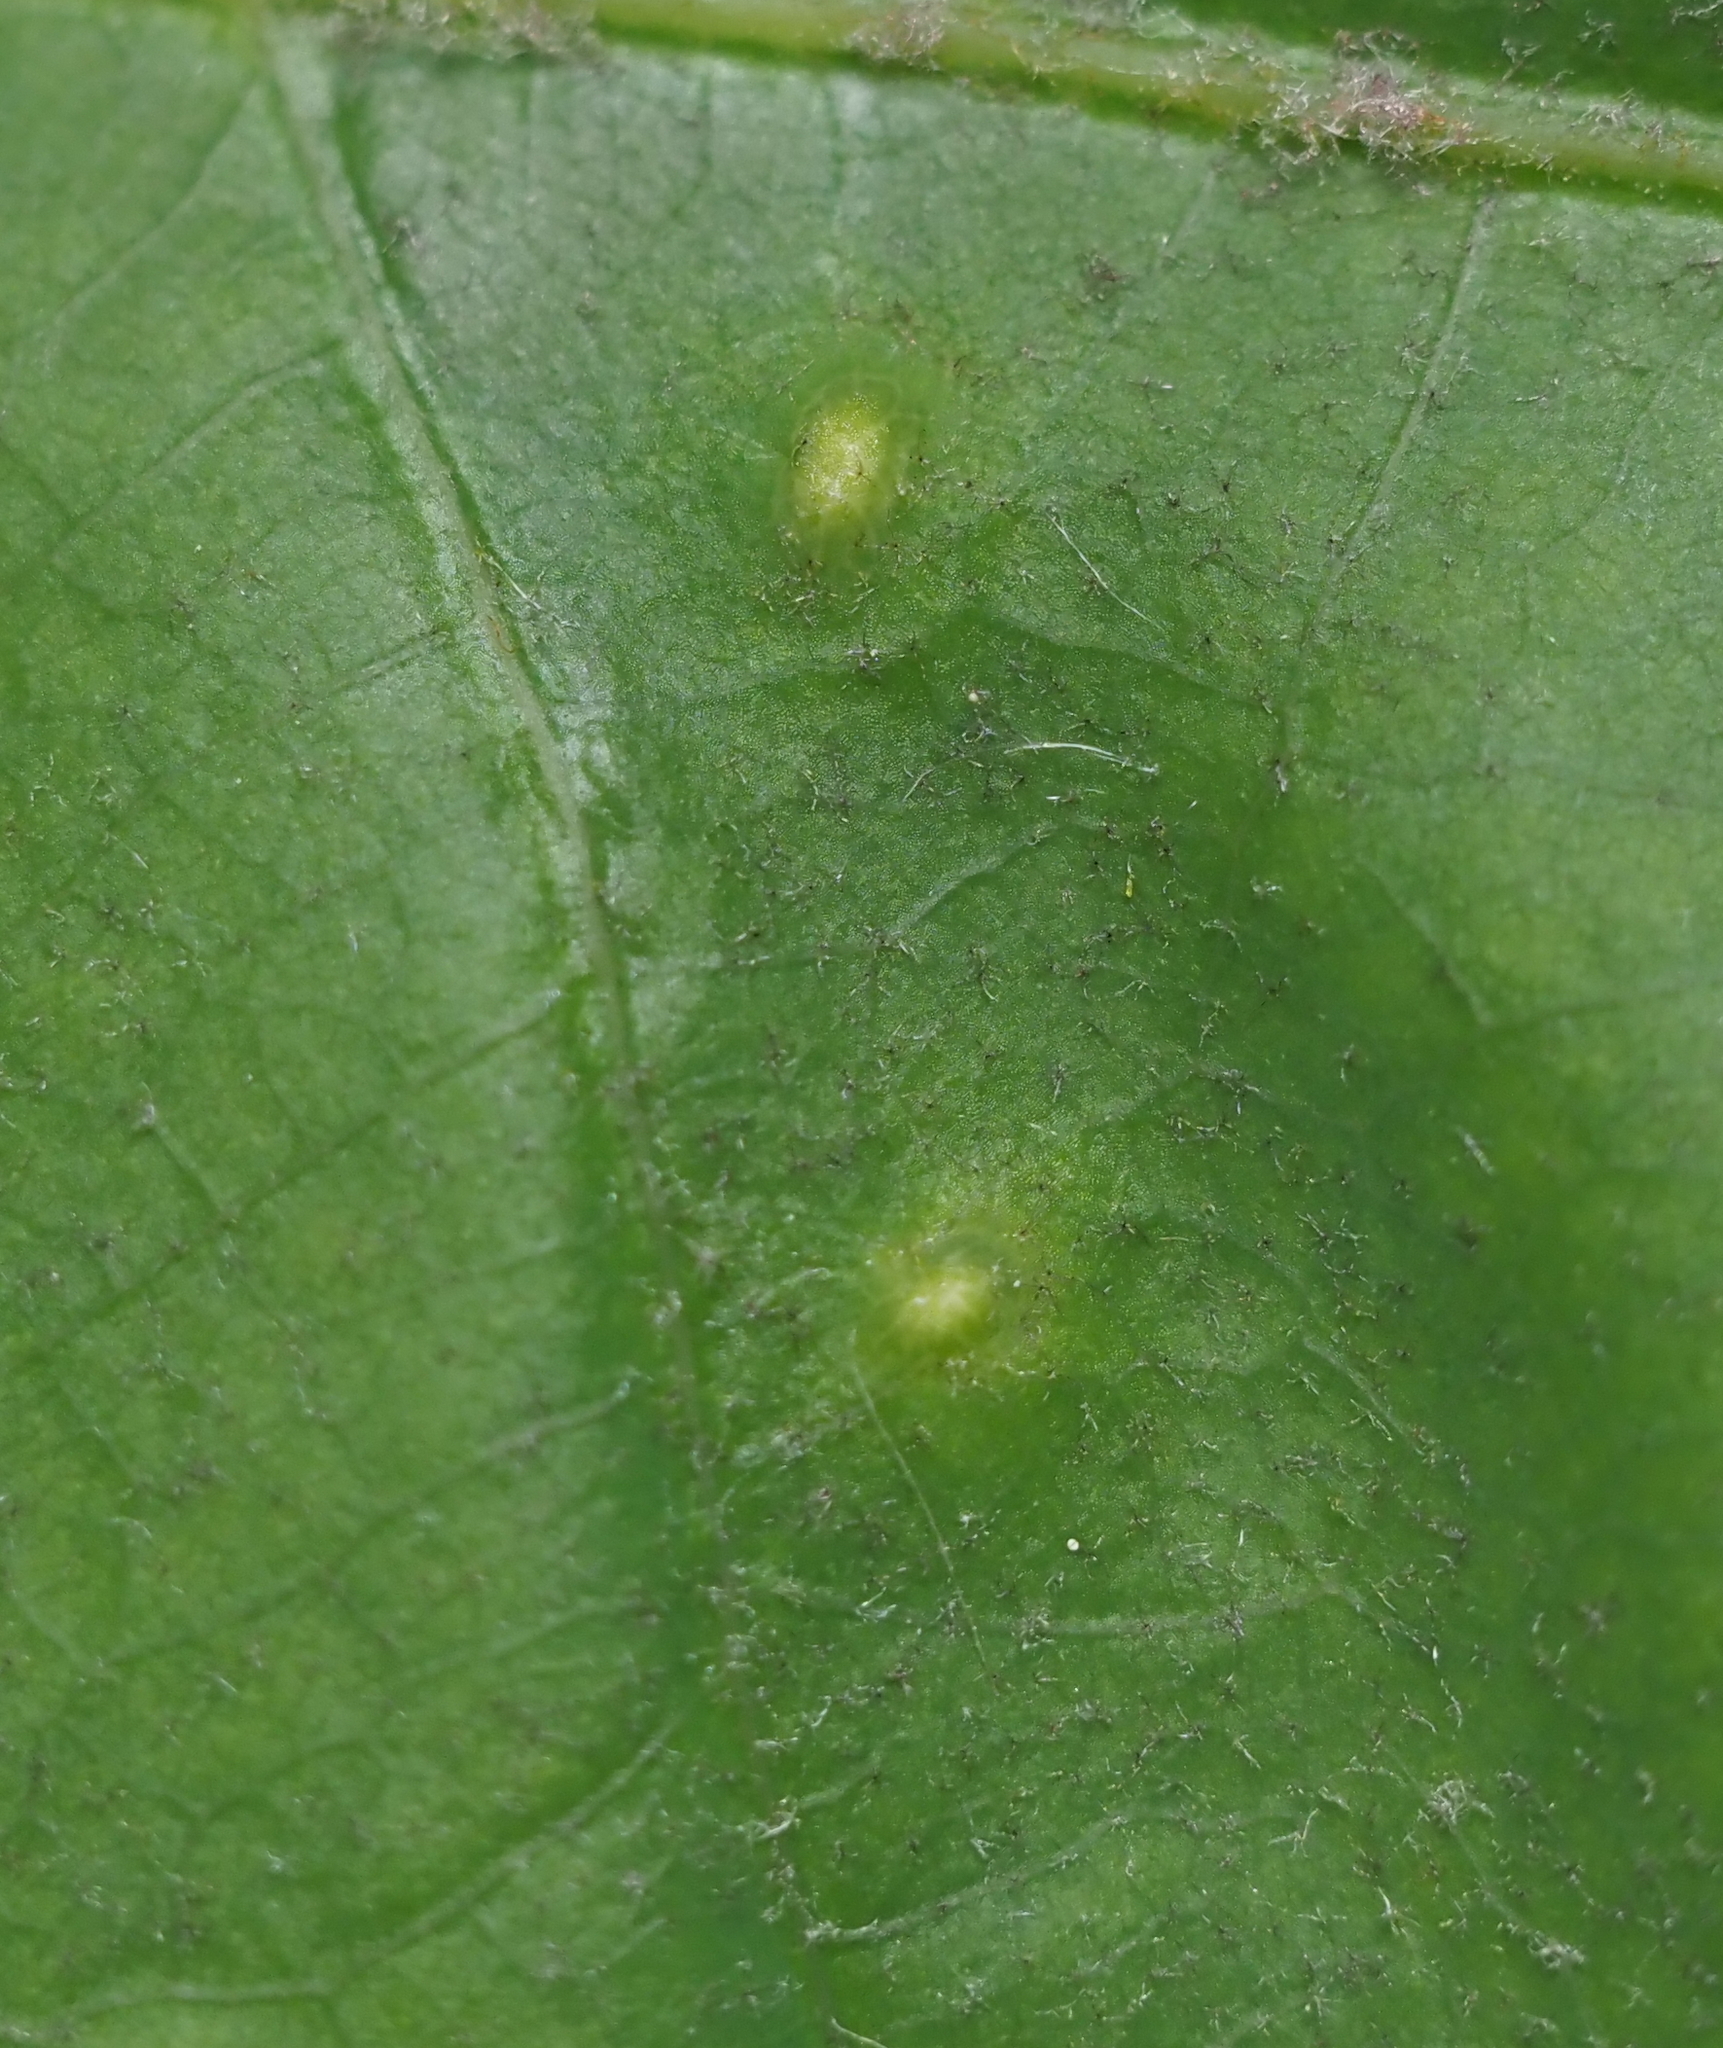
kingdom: Animalia
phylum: Arthropoda
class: Insecta
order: Hymenoptera
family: Cynipidae
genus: Neuroterus
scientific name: Neuroterus quercusverrucarum
